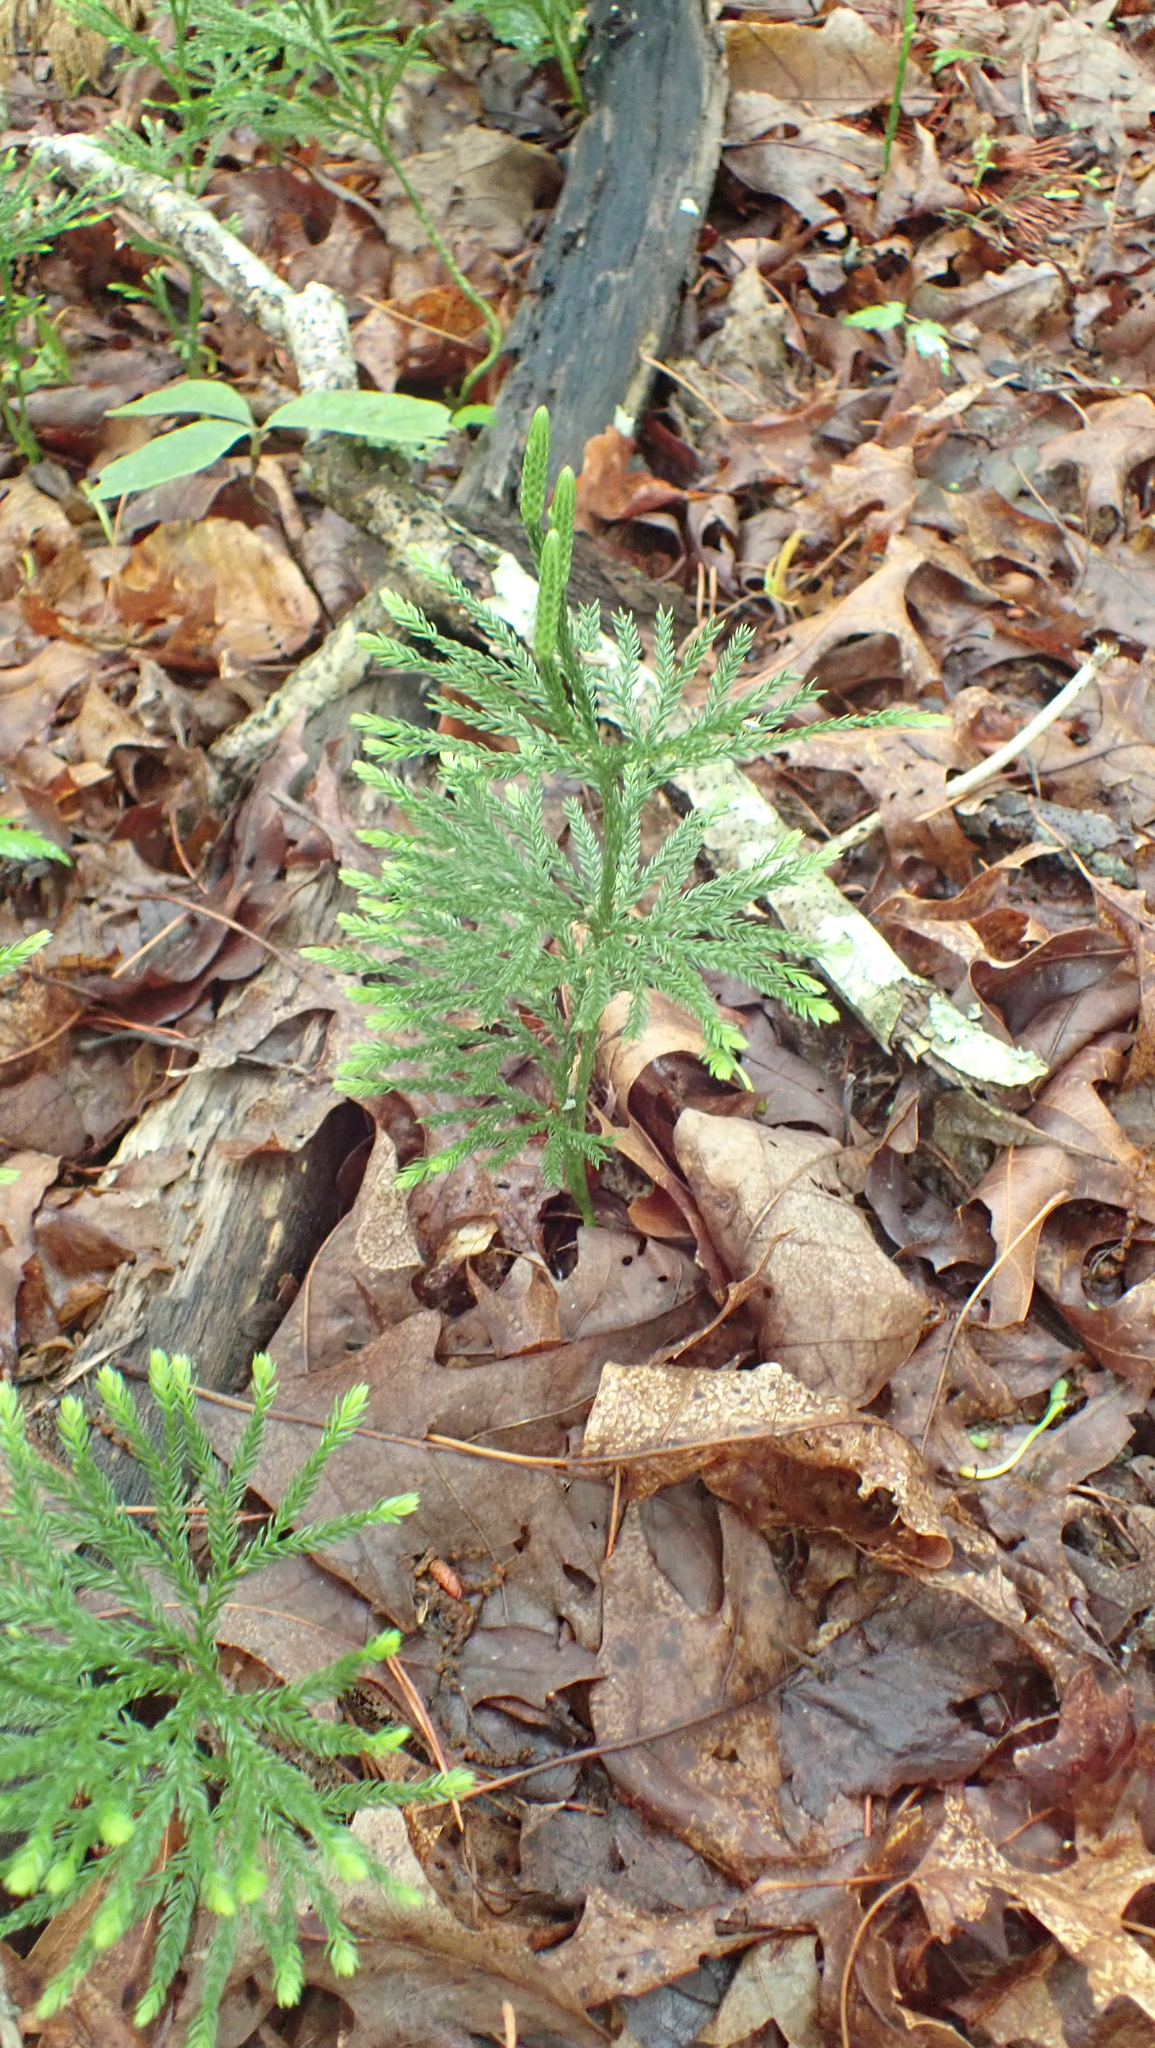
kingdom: Plantae
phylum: Tracheophyta
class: Lycopodiopsida
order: Lycopodiales
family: Lycopodiaceae
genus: Dendrolycopodium
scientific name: Dendrolycopodium obscurum
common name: Common ground-pine
